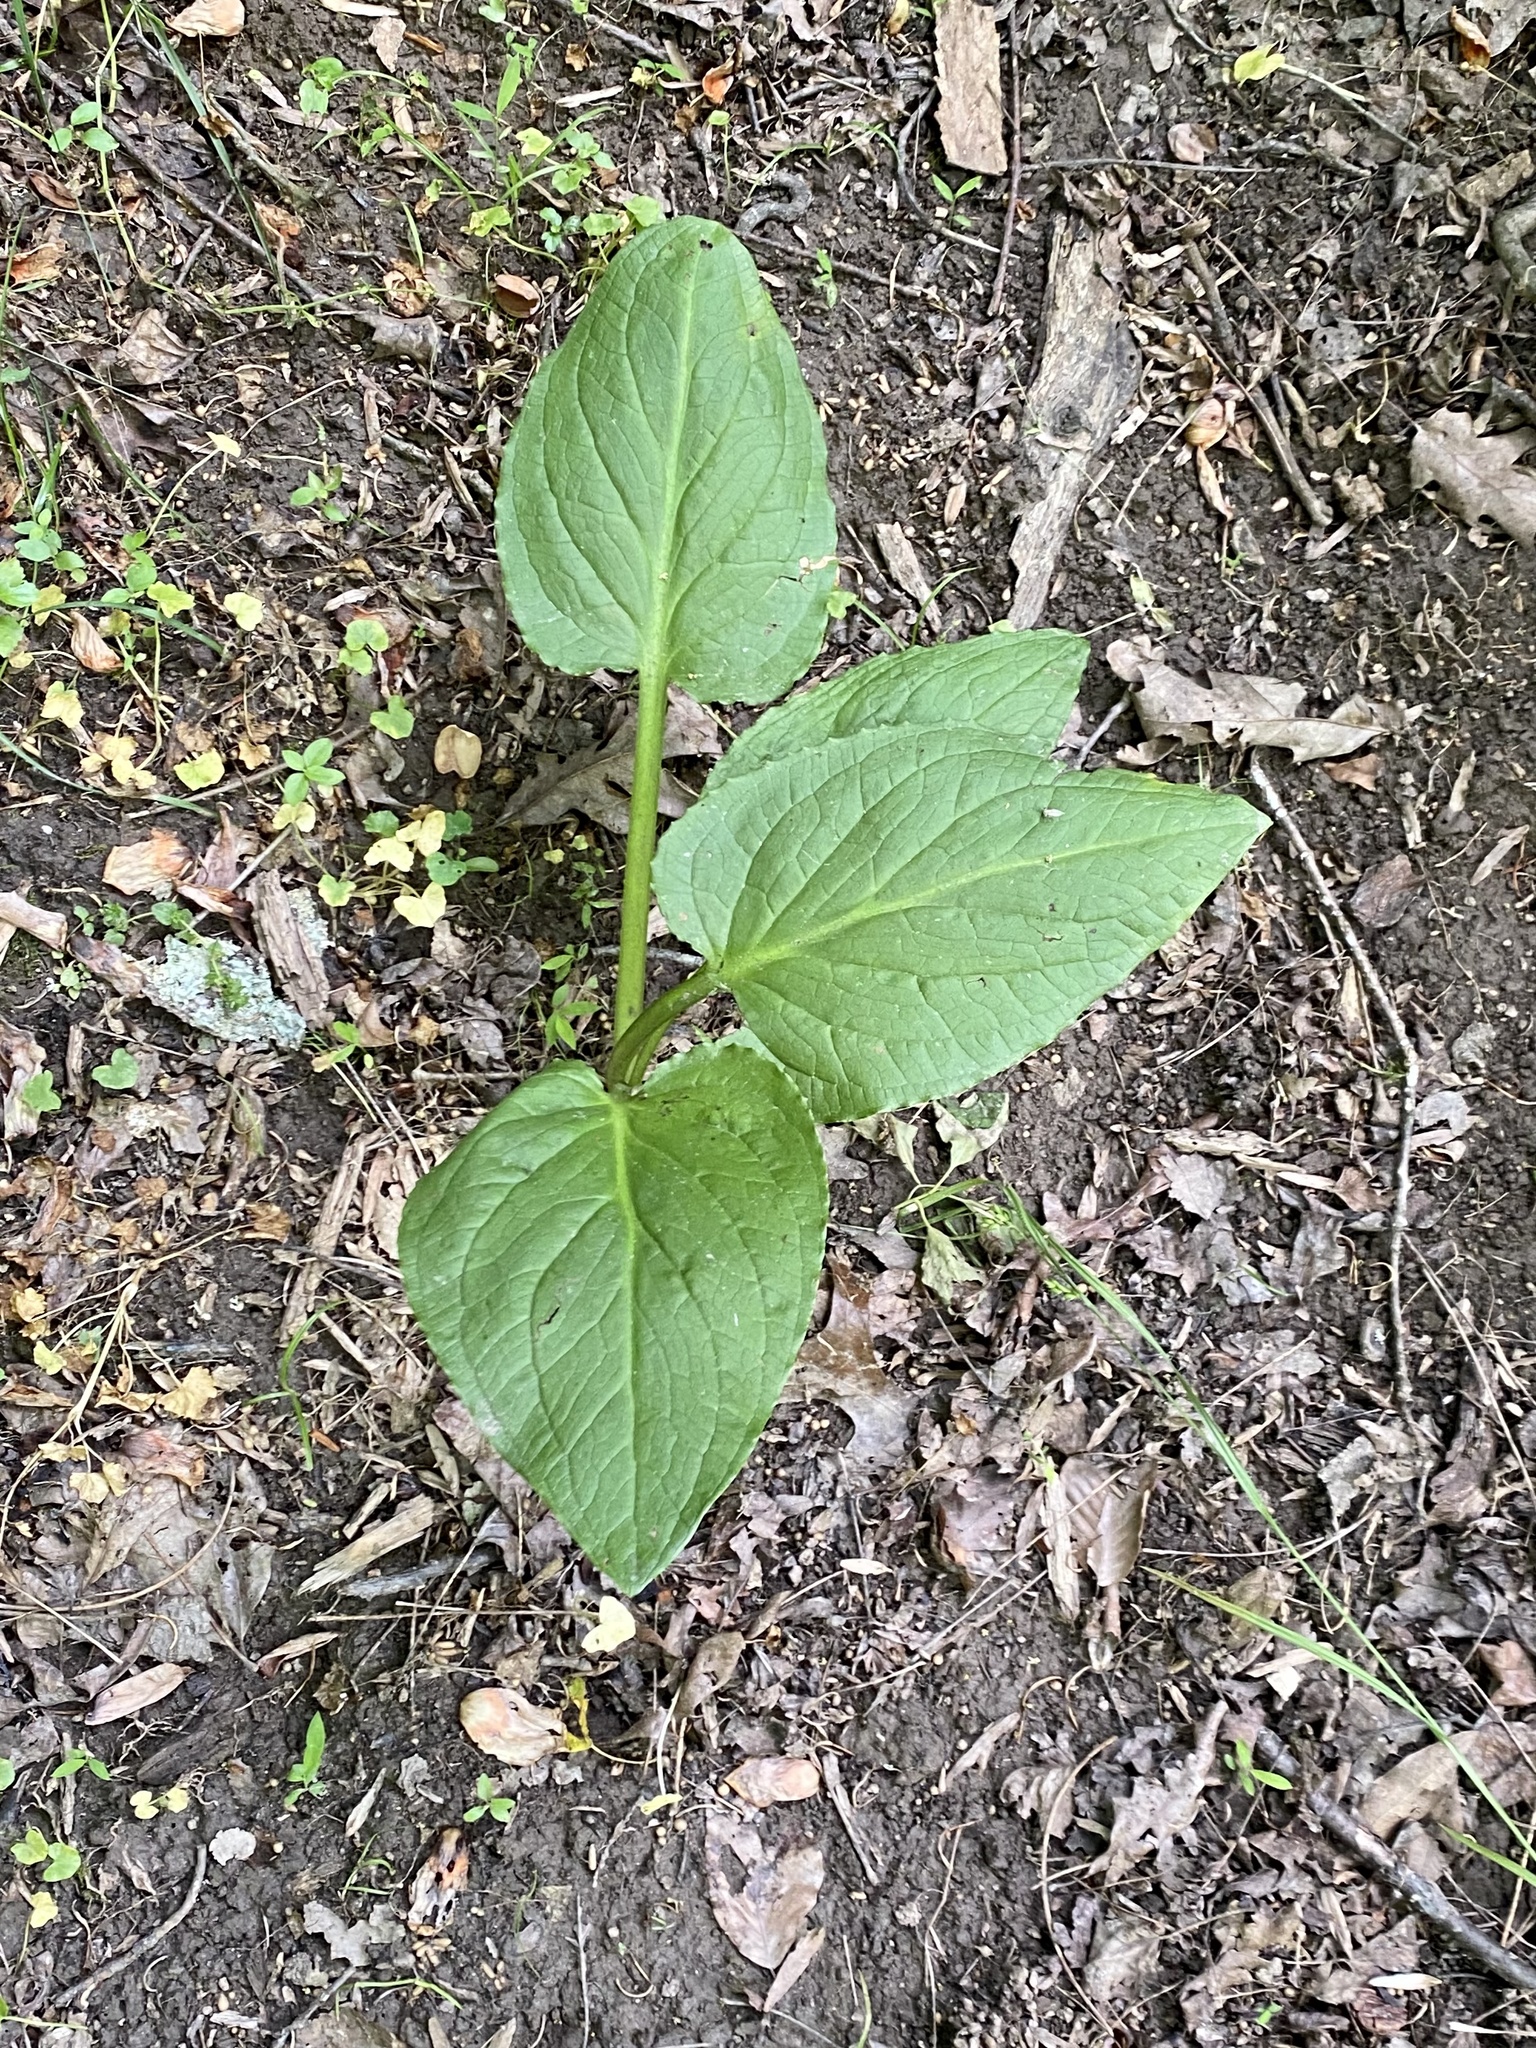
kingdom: Plantae
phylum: Tracheophyta
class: Liliopsida
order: Alismatales
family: Araceae
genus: Symplocarpus
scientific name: Symplocarpus foetidus
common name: Eastern skunk cabbage
